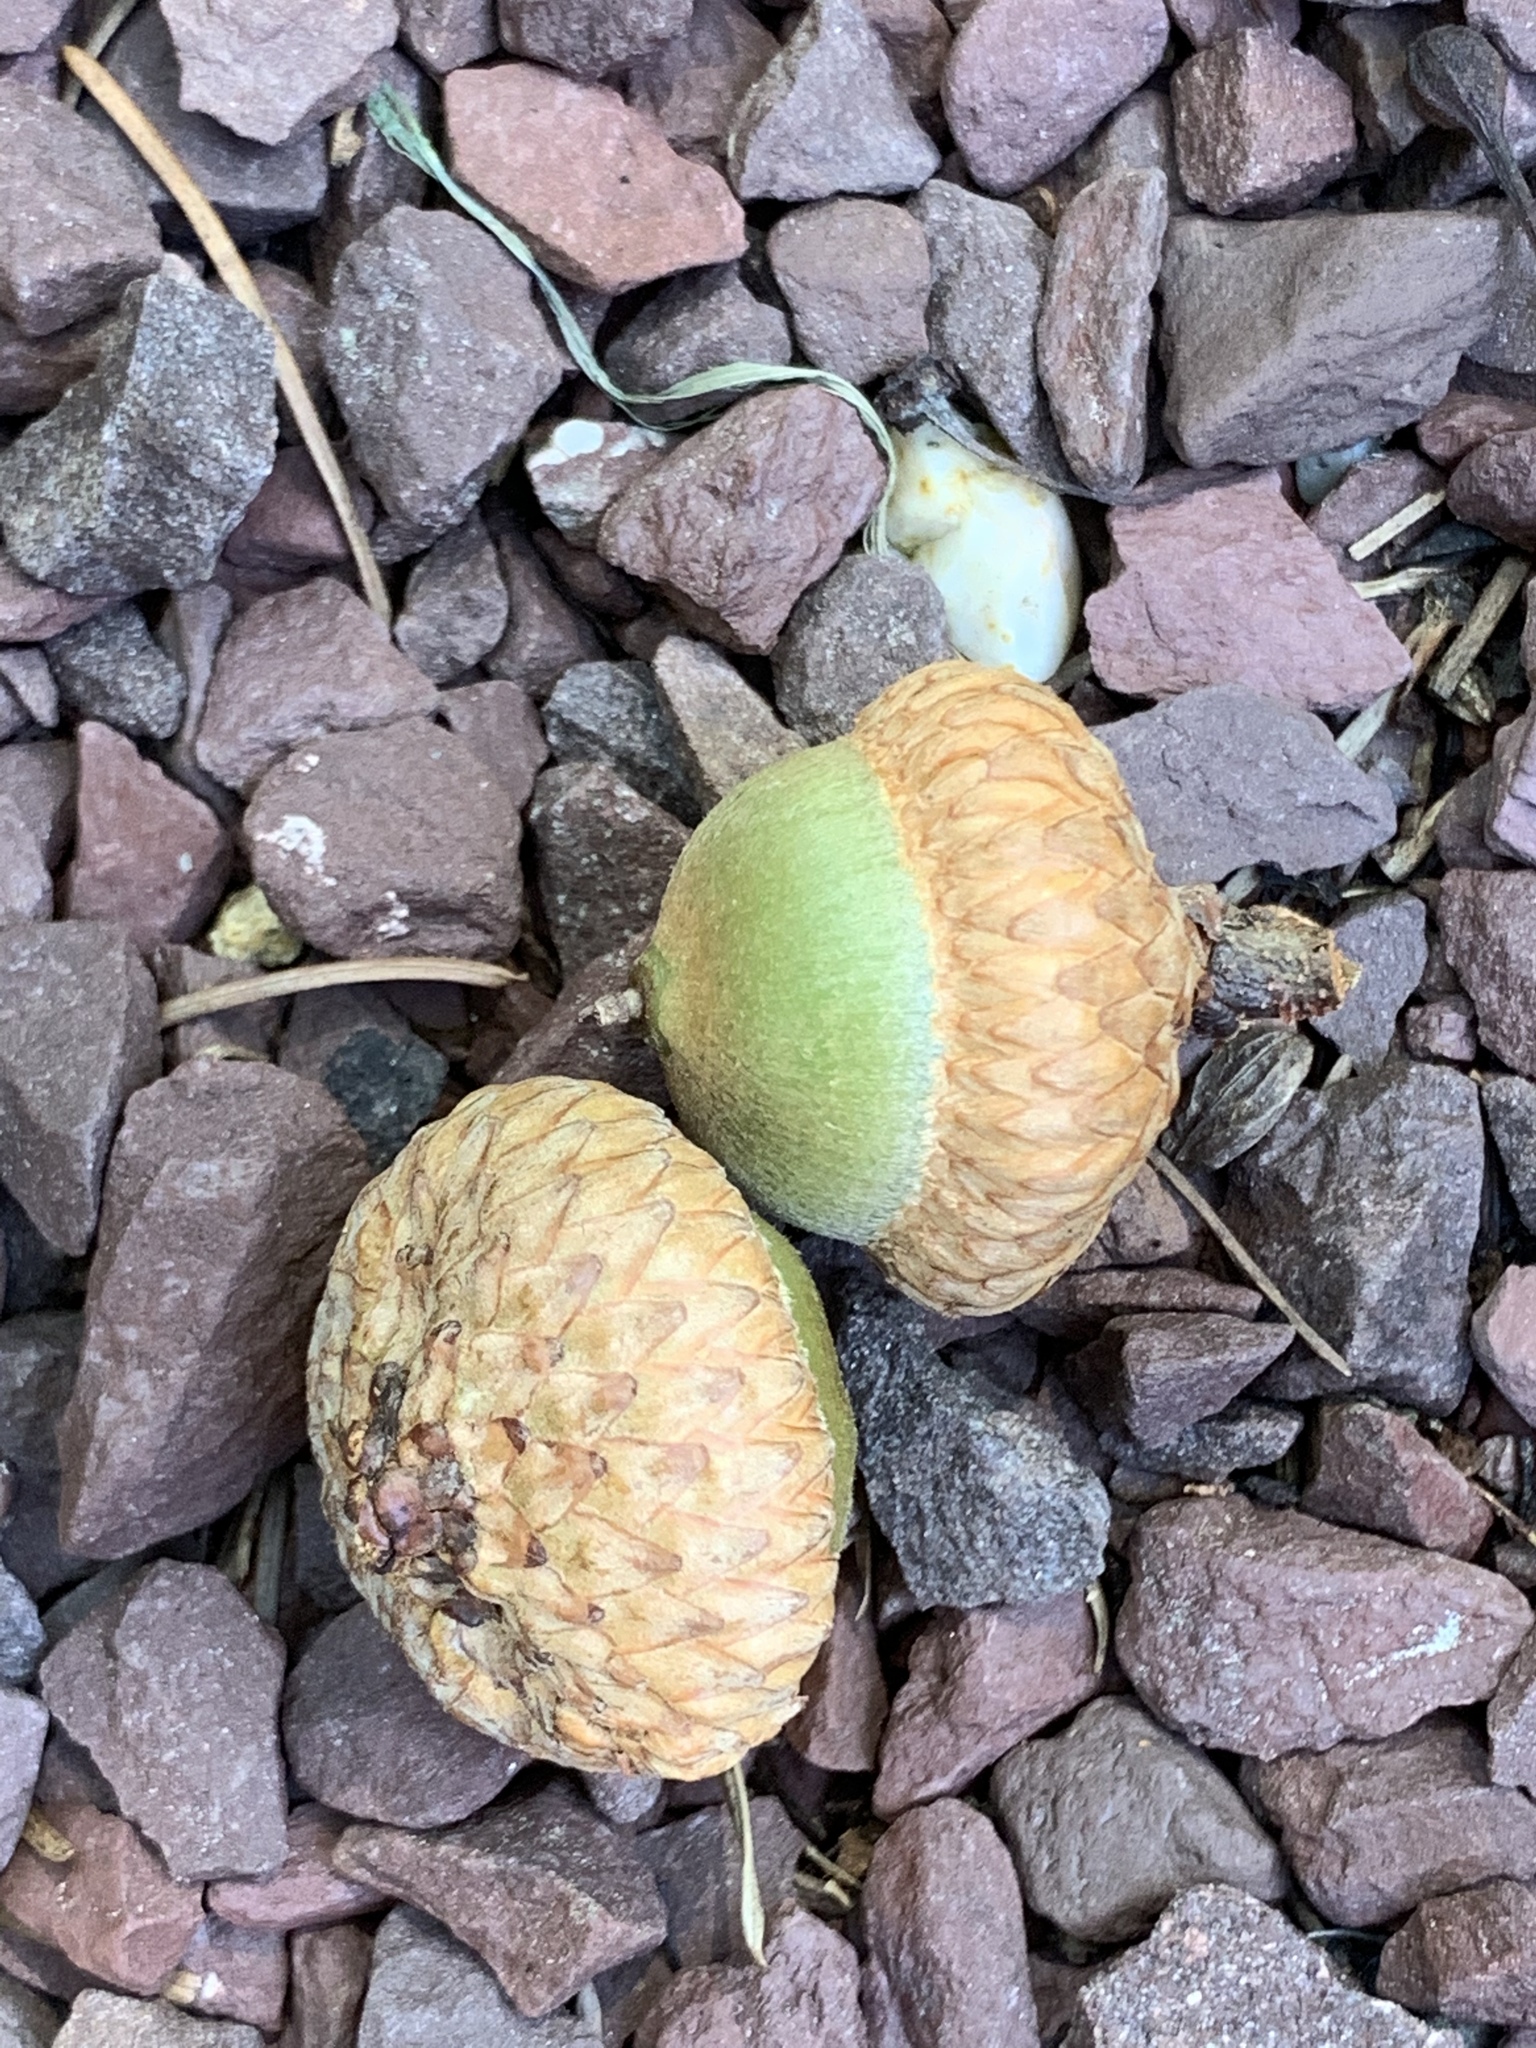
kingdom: Plantae
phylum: Tracheophyta
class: Magnoliopsida
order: Fagales
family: Fagaceae
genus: Quercus
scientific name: Quercus rubra
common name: Red oak
